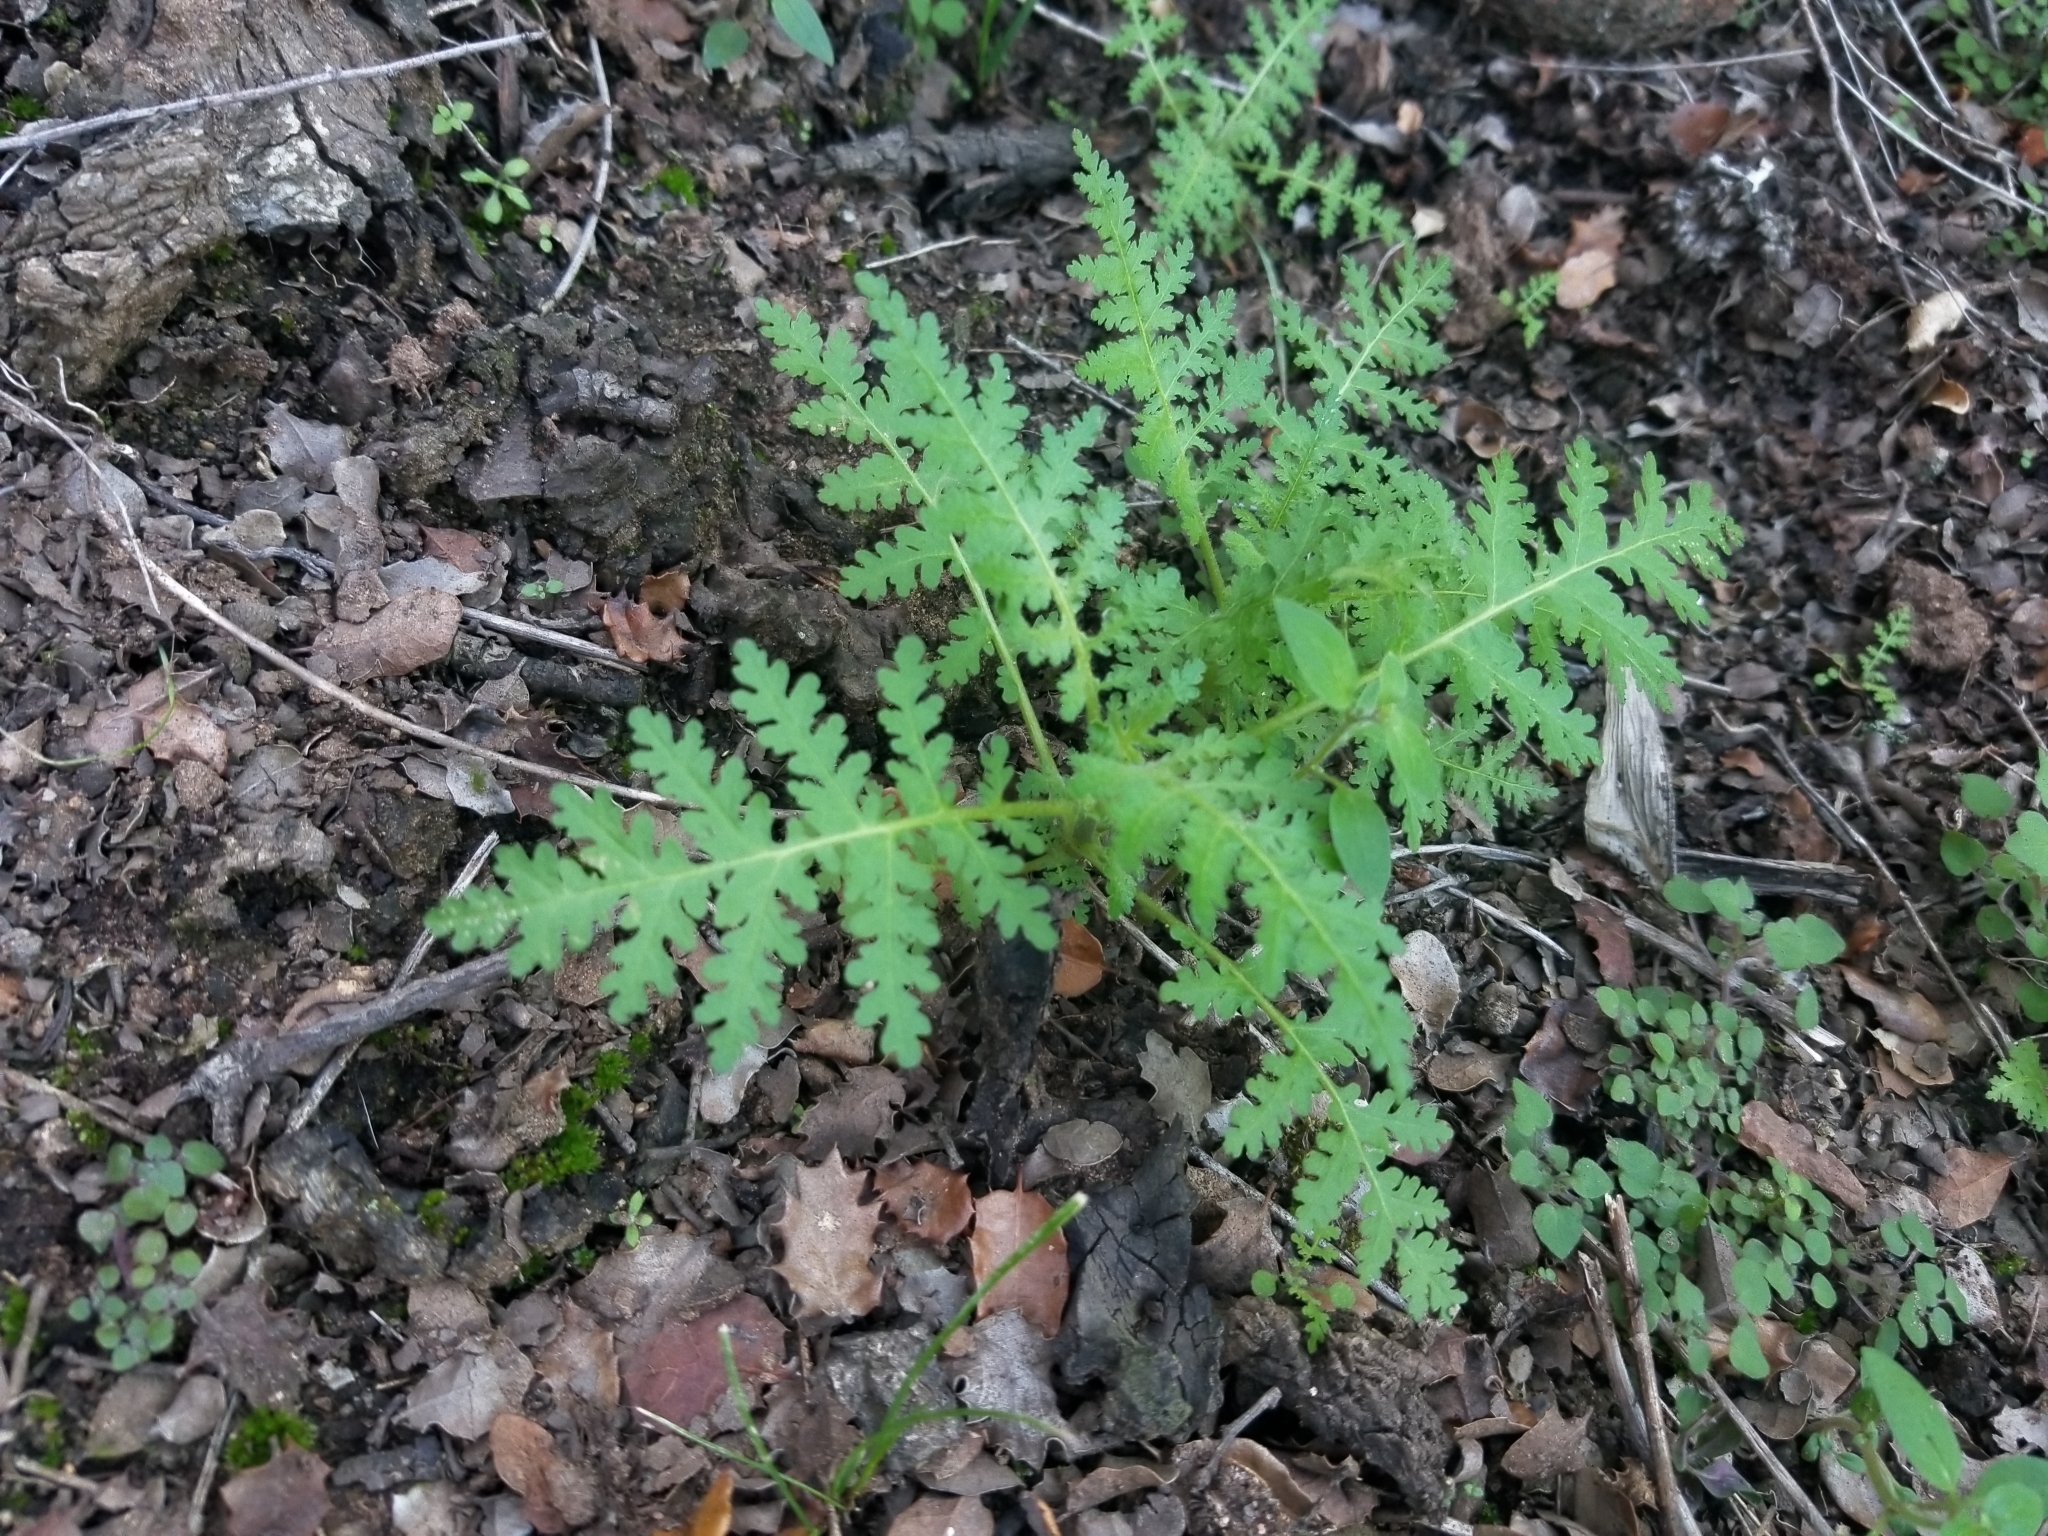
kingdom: Plantae
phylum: Tracheophyta
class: Magnoliopsida
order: Boraginales
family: Hydrophyllaceae
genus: Eucrypta
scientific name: Eucrypta chrysanthemifolia
